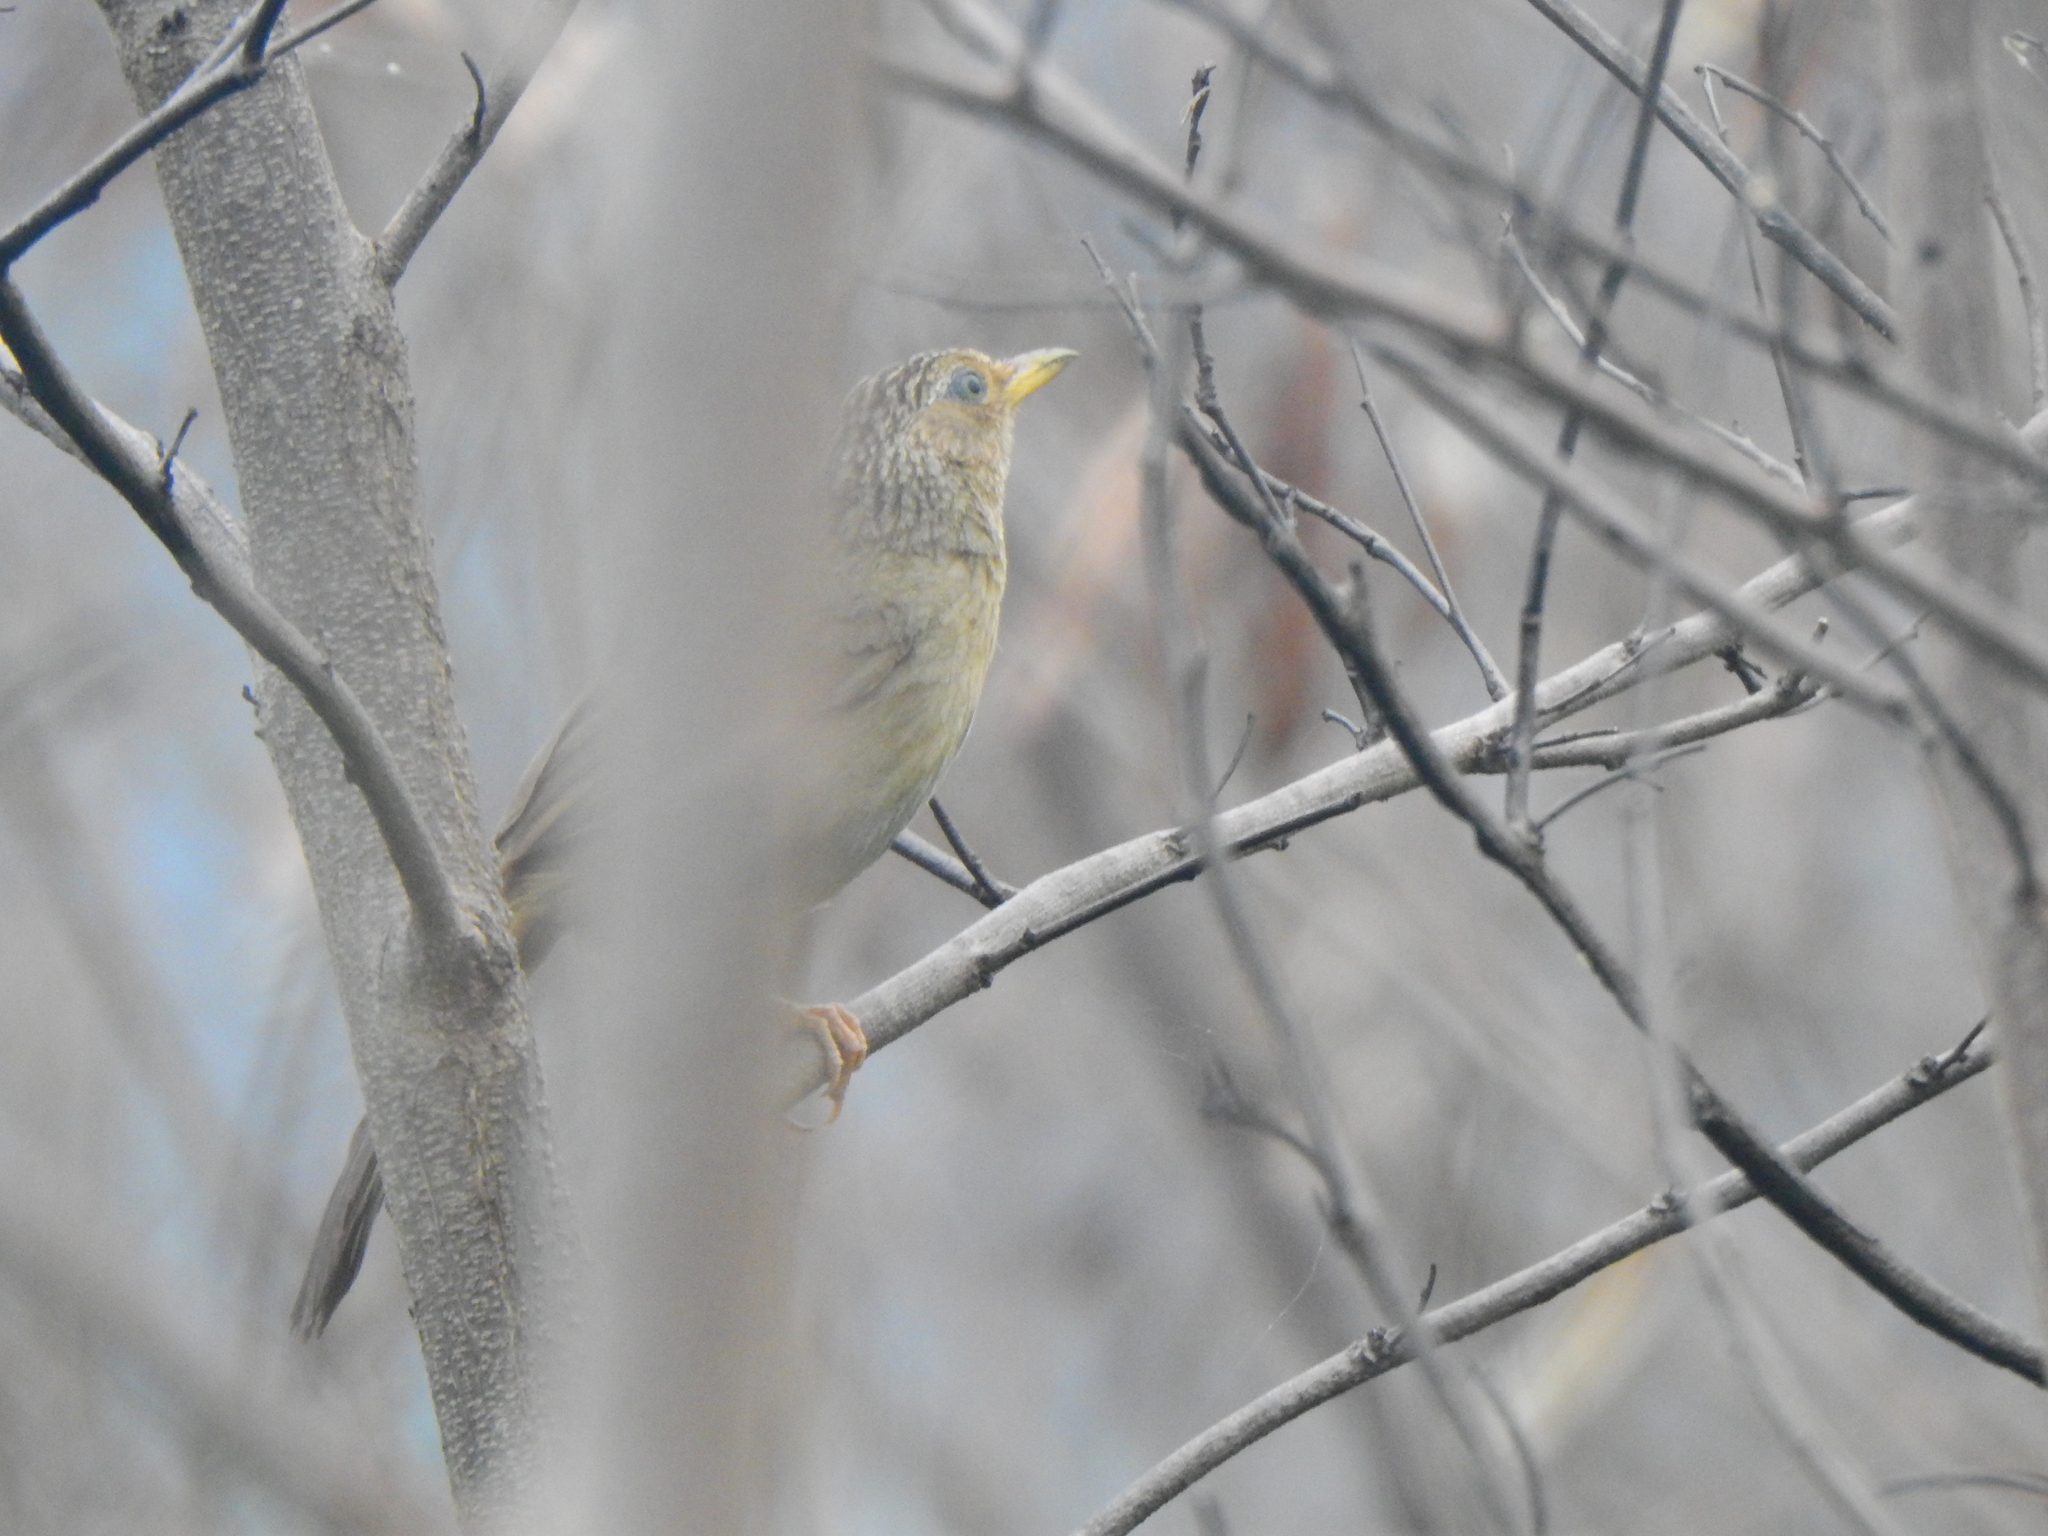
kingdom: Animalia
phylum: Chordata
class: Aves
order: Passeriformes
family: Leiothrichidae
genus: Garrulax
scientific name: Garrulax taewanus
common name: Taiwan hwamei
